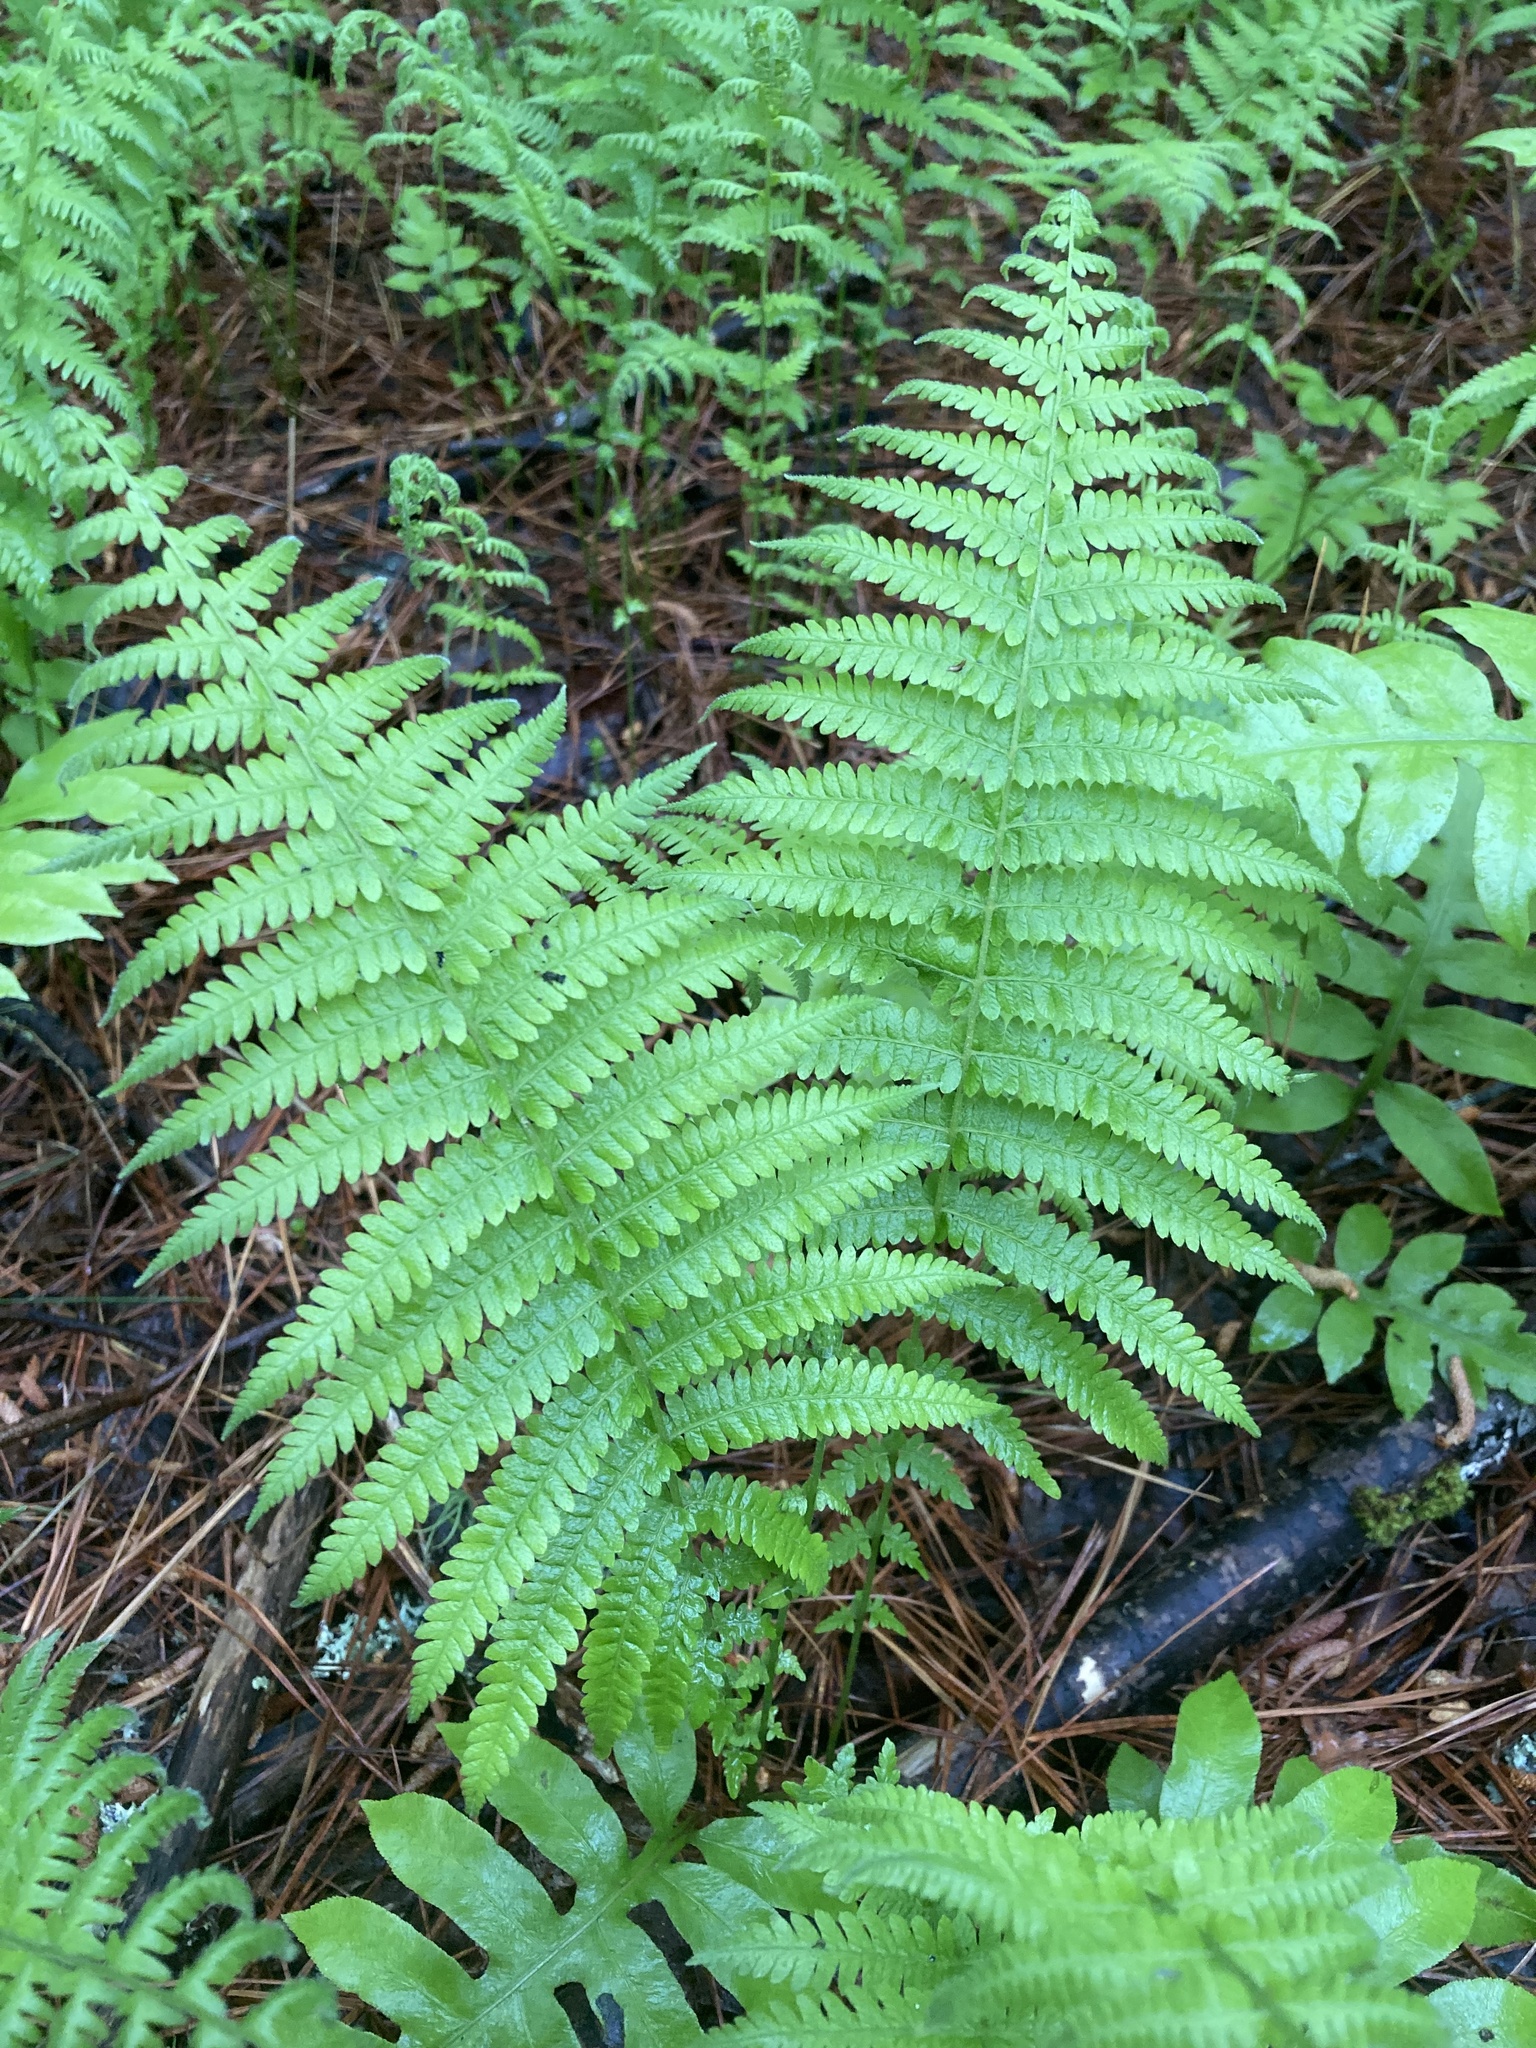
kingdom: Plantae
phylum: Tracheophyta
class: Polypodiopsida
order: Polypodiales
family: Thelypteridaceae
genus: Amauropelta
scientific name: Amauropelta noveboracensis
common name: New york fern
